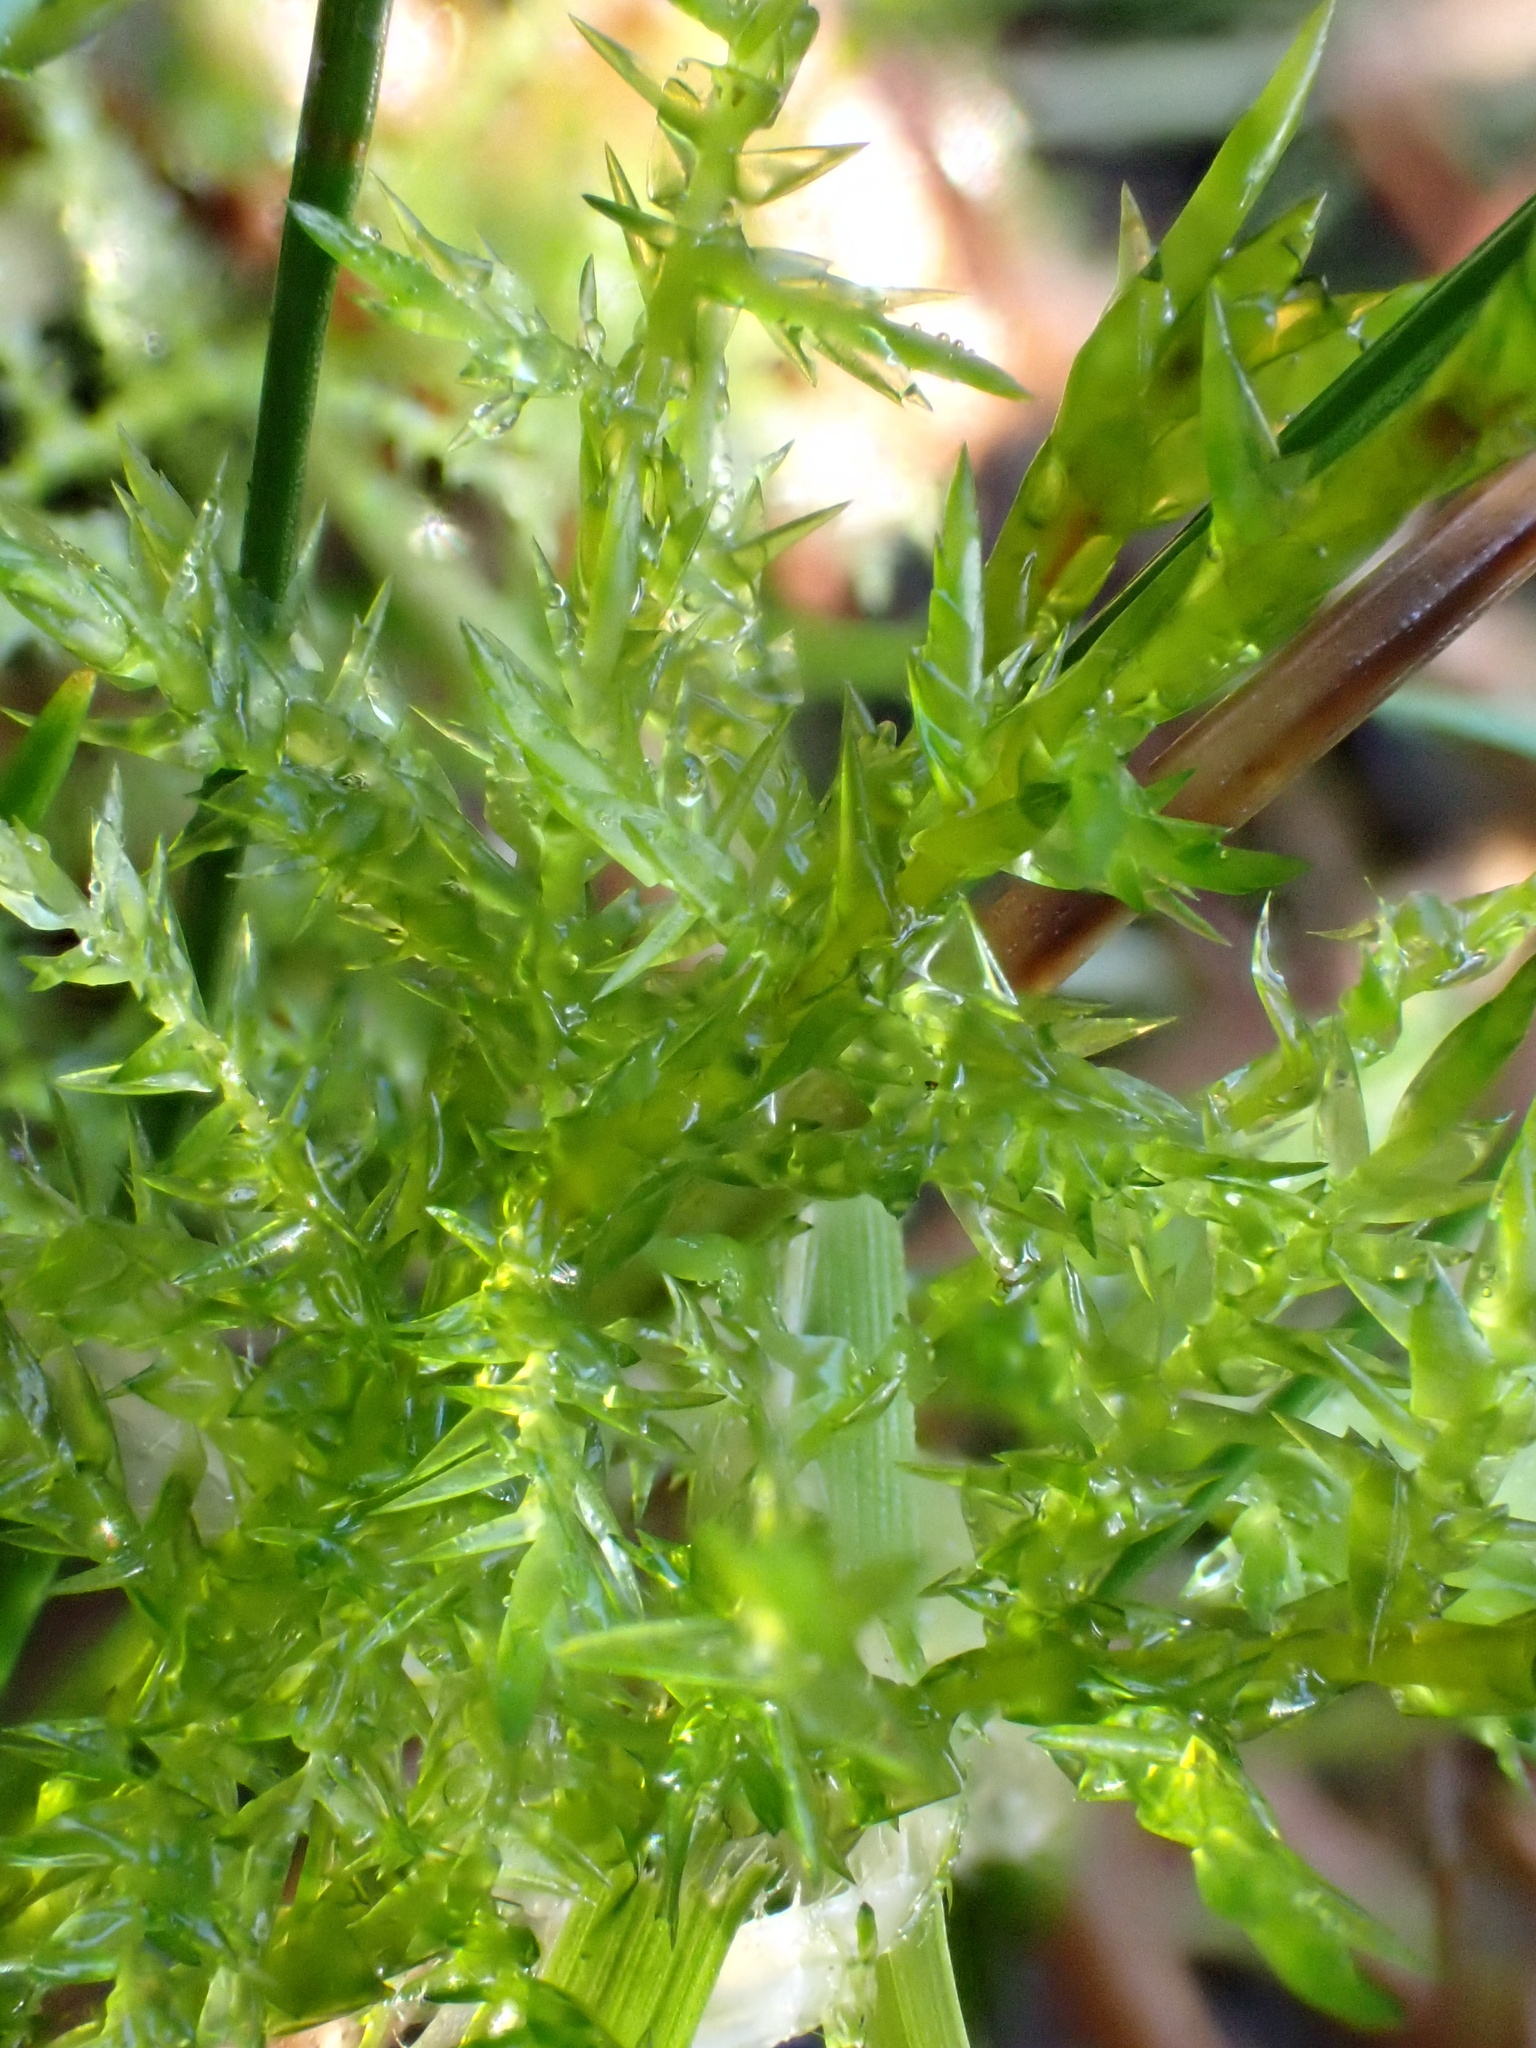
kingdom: Plantae
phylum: Bryophyta
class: Bryopsida
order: Hypnales
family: Pylaisiaceae
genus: Calliergonella
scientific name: Calliergonella cuspidata
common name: Common large wetland moss
